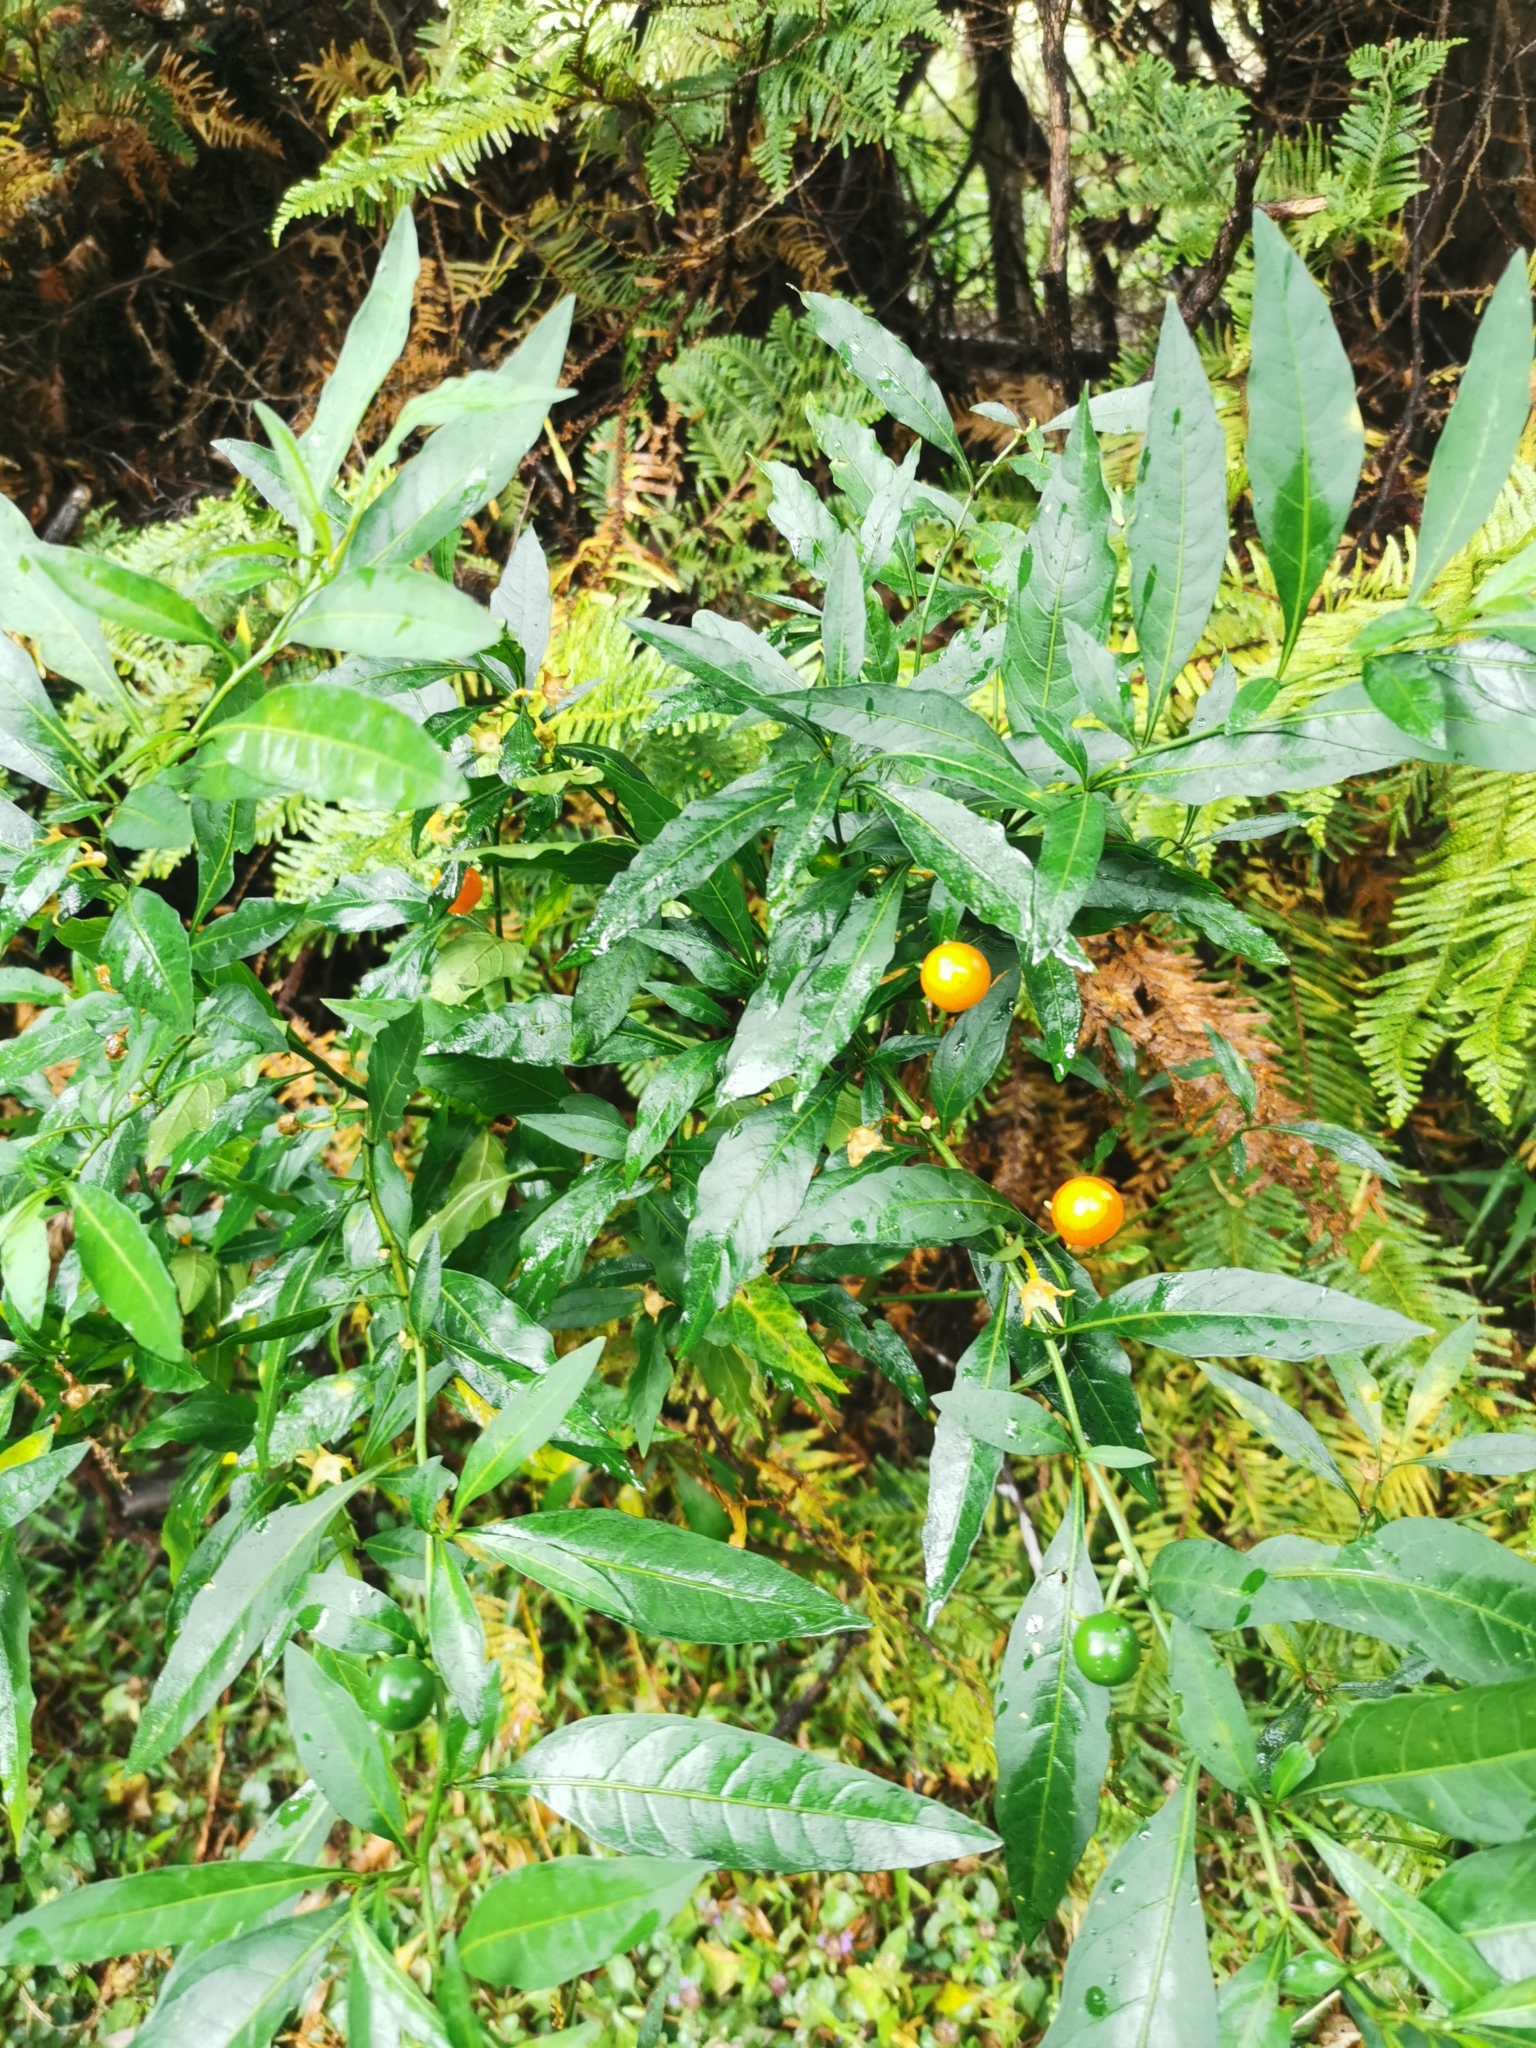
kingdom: Plantae
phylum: Tracheophyta
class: Magnoliopsida
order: Solanales
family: Solanaceae
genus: Solanum
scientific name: Solanum pseudocapsicum
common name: Jerusalem cherry
